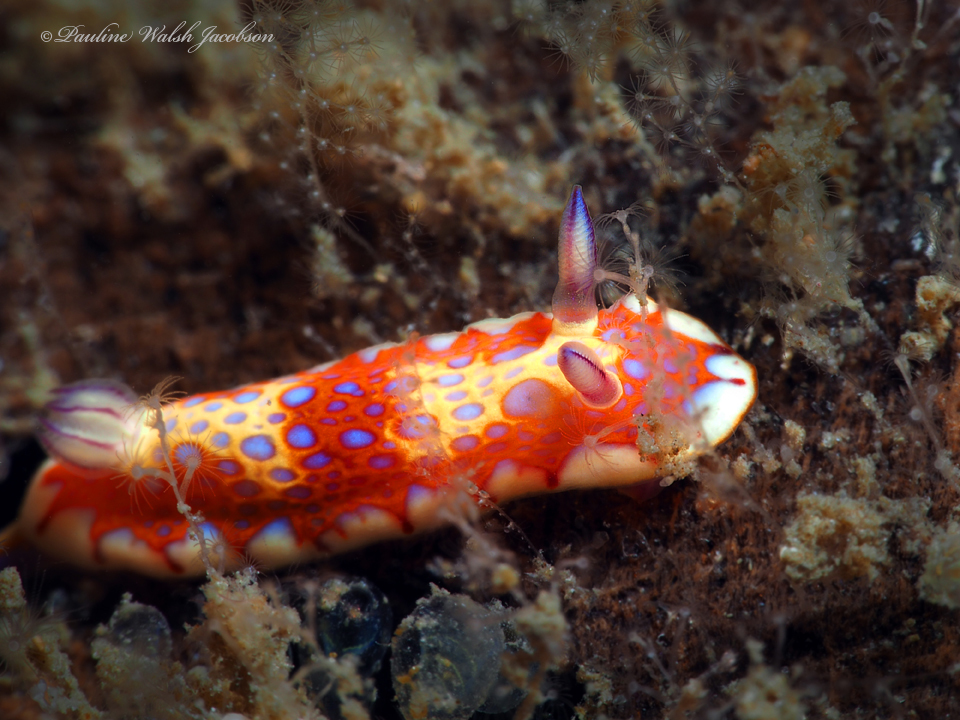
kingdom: Animalia
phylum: Mollusca
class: Gastropoda
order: Nudibranchia
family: Chromodorididae
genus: Felimida
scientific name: Felimida binza
